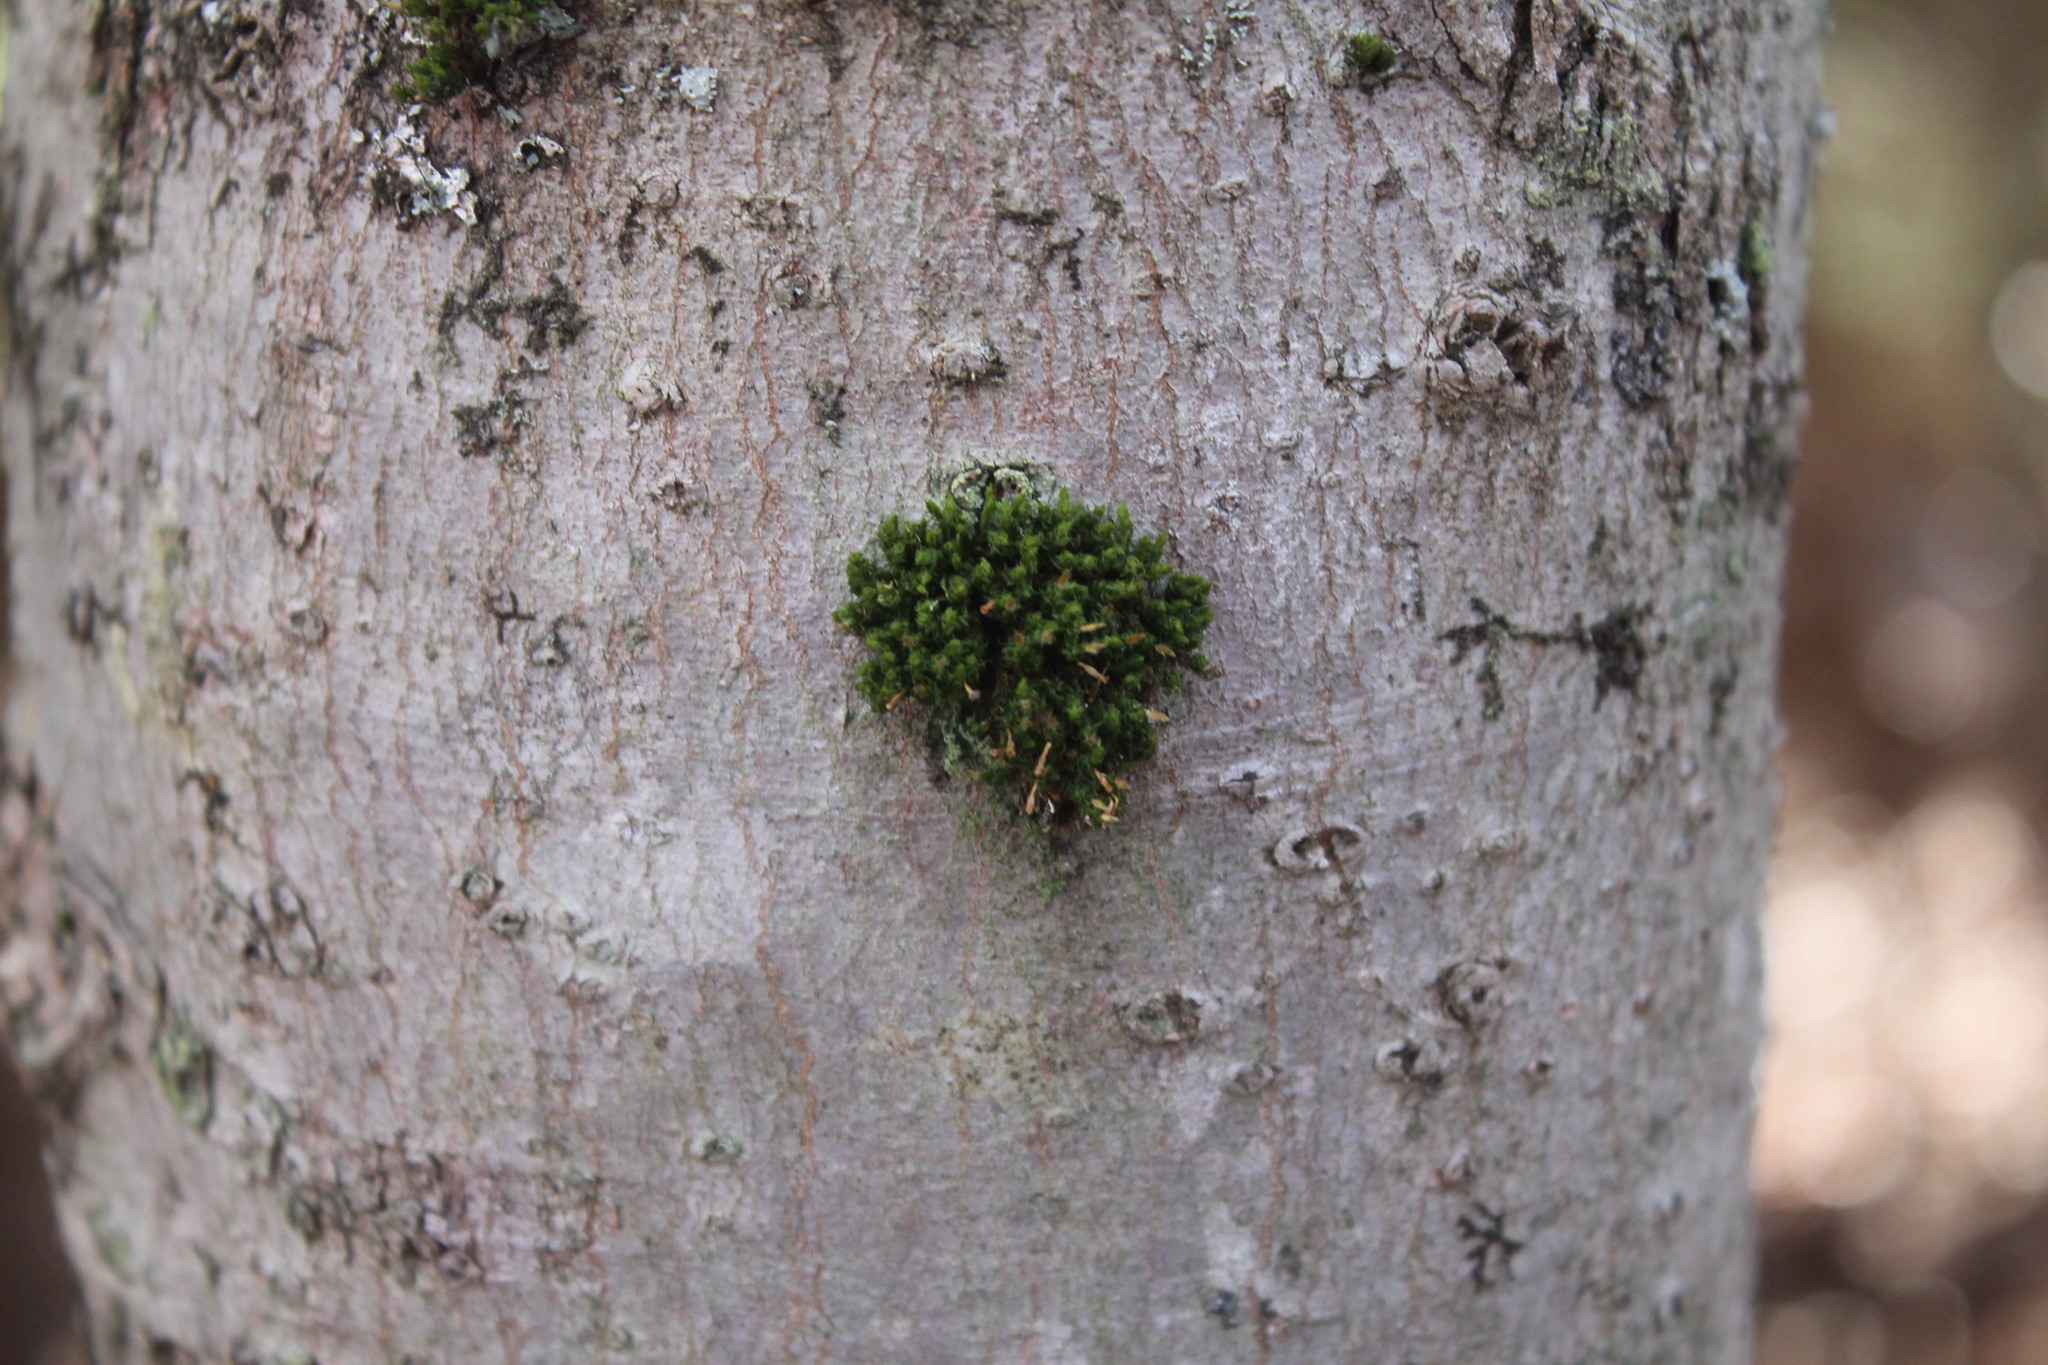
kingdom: Plantae
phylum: Bryophyta
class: Bryopsida
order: Orthotrichales
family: Orthotrichaceae
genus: Ulota
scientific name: Ulota crispa
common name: Crisped pincushion moss
